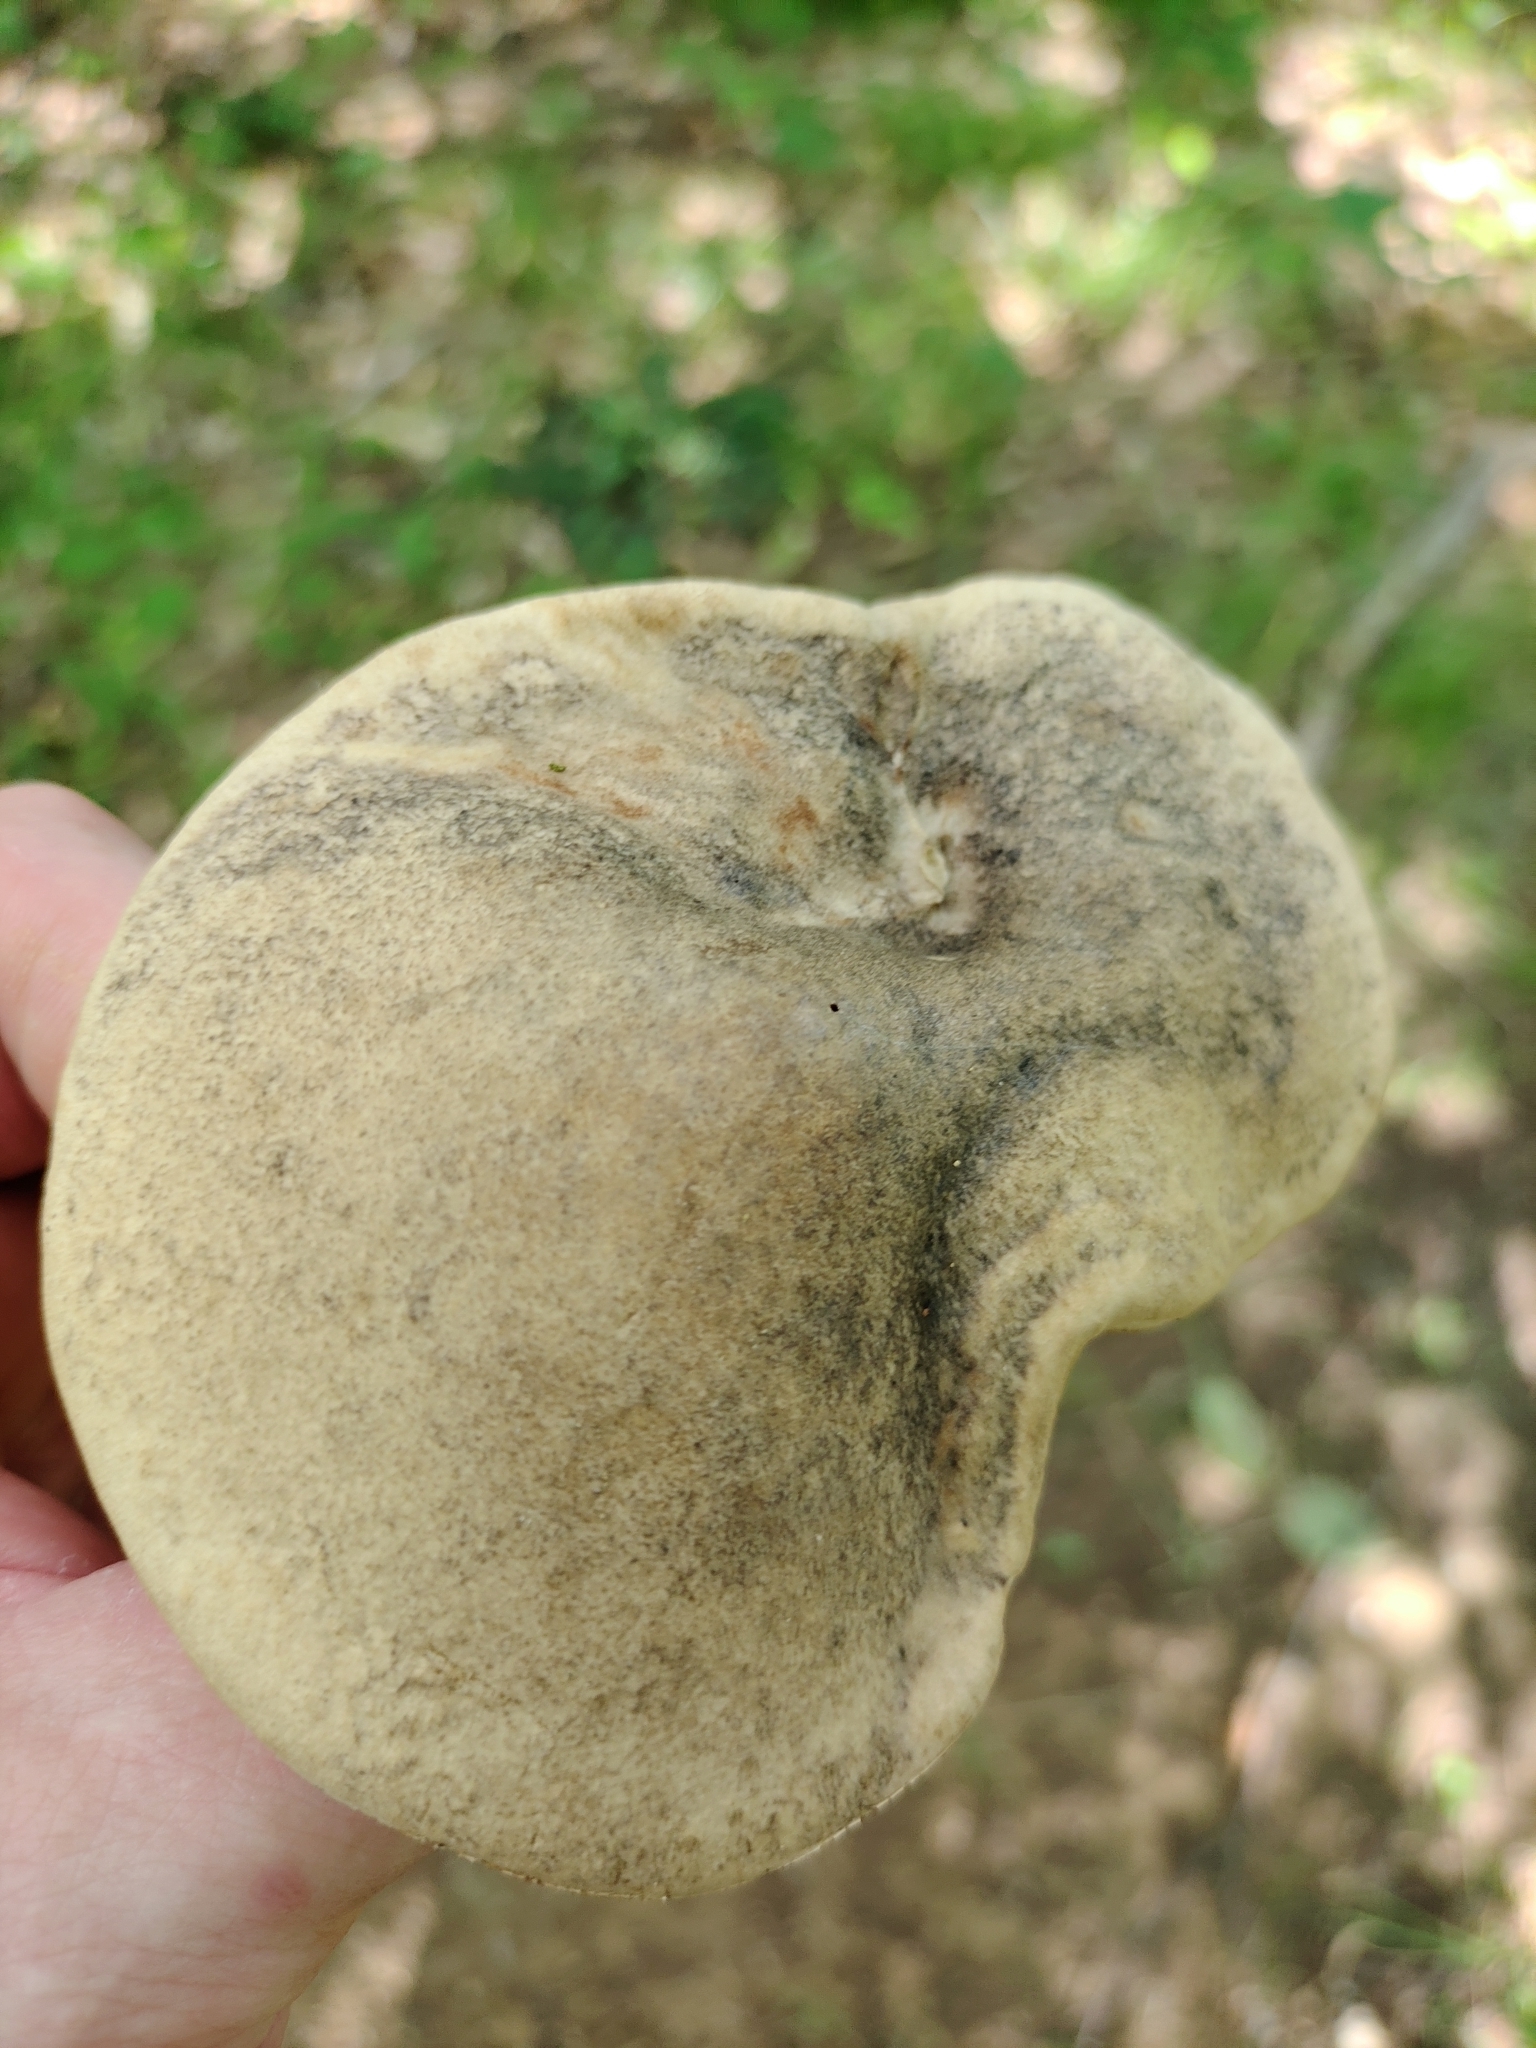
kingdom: Fungi
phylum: Basidiomycota
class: Agaricomycetes
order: Boletales
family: Boletaceae
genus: Retiboletus
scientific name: Retiboletus griseus
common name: Grey bolete
